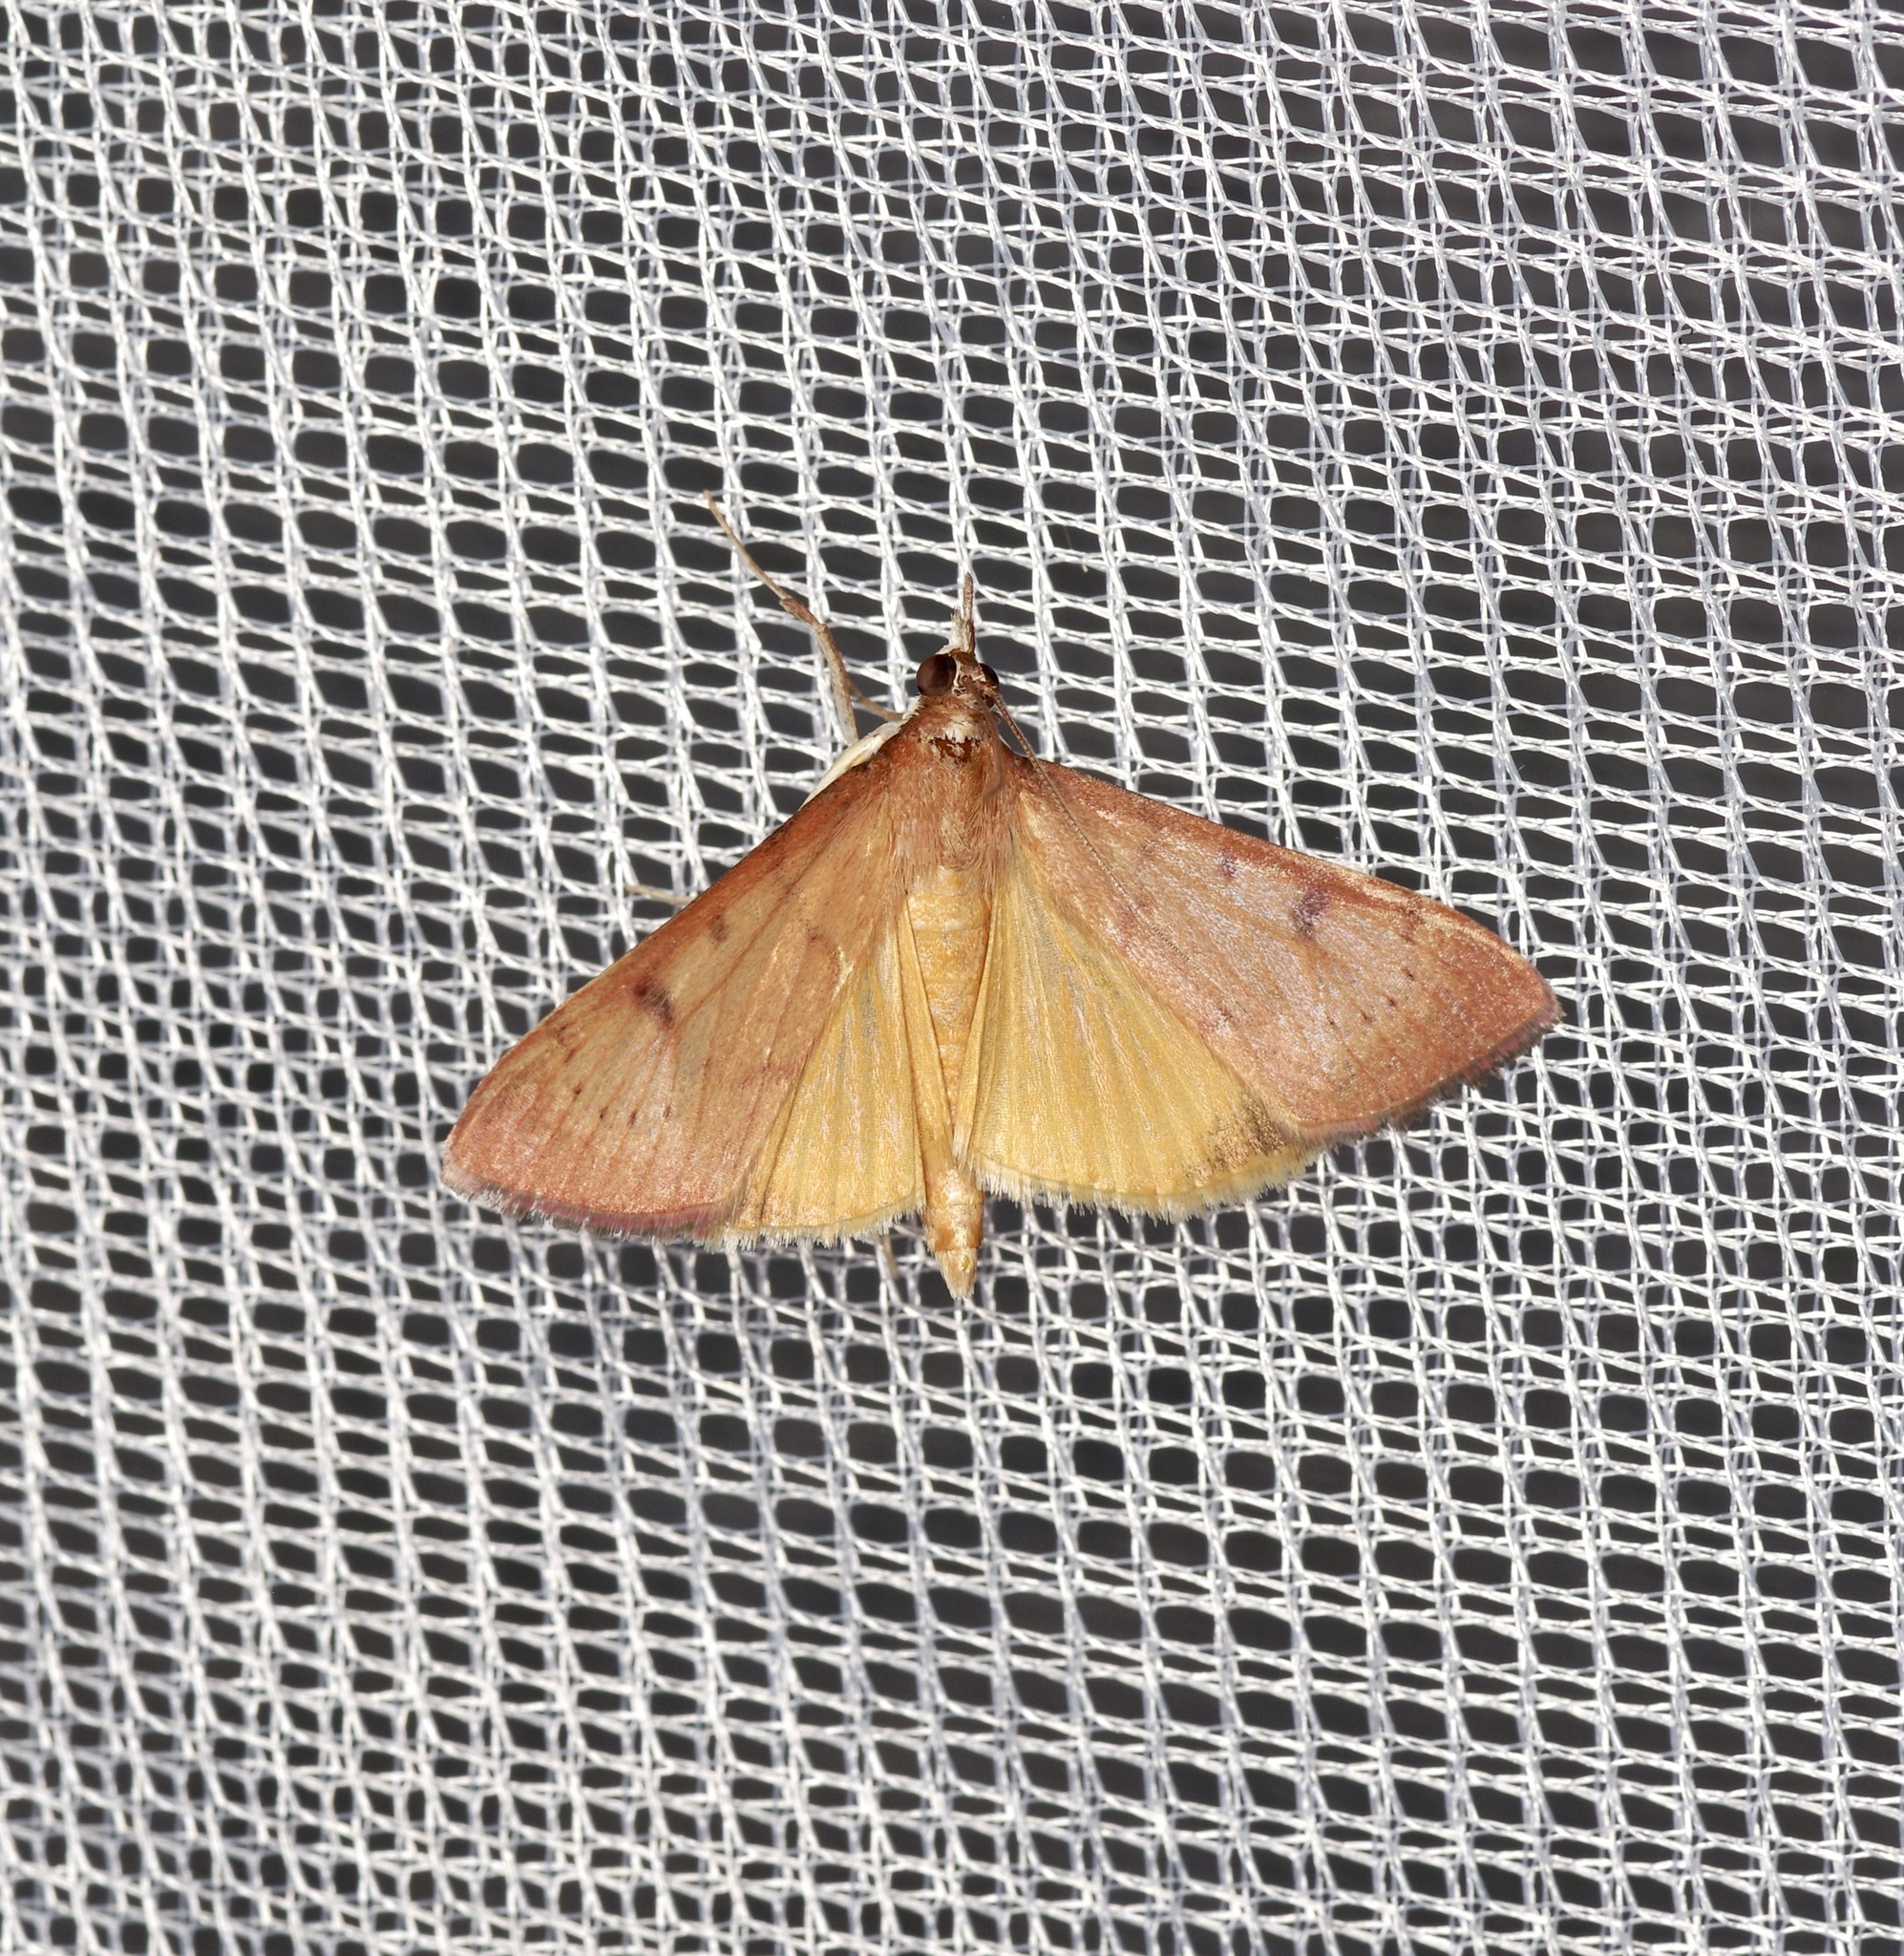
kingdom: Animalia
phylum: Arthropoda
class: Insecta
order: Lepidoptera
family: Crambidae
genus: Uresiphita
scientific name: Uresiphita reversalis
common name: Genista broom moth
